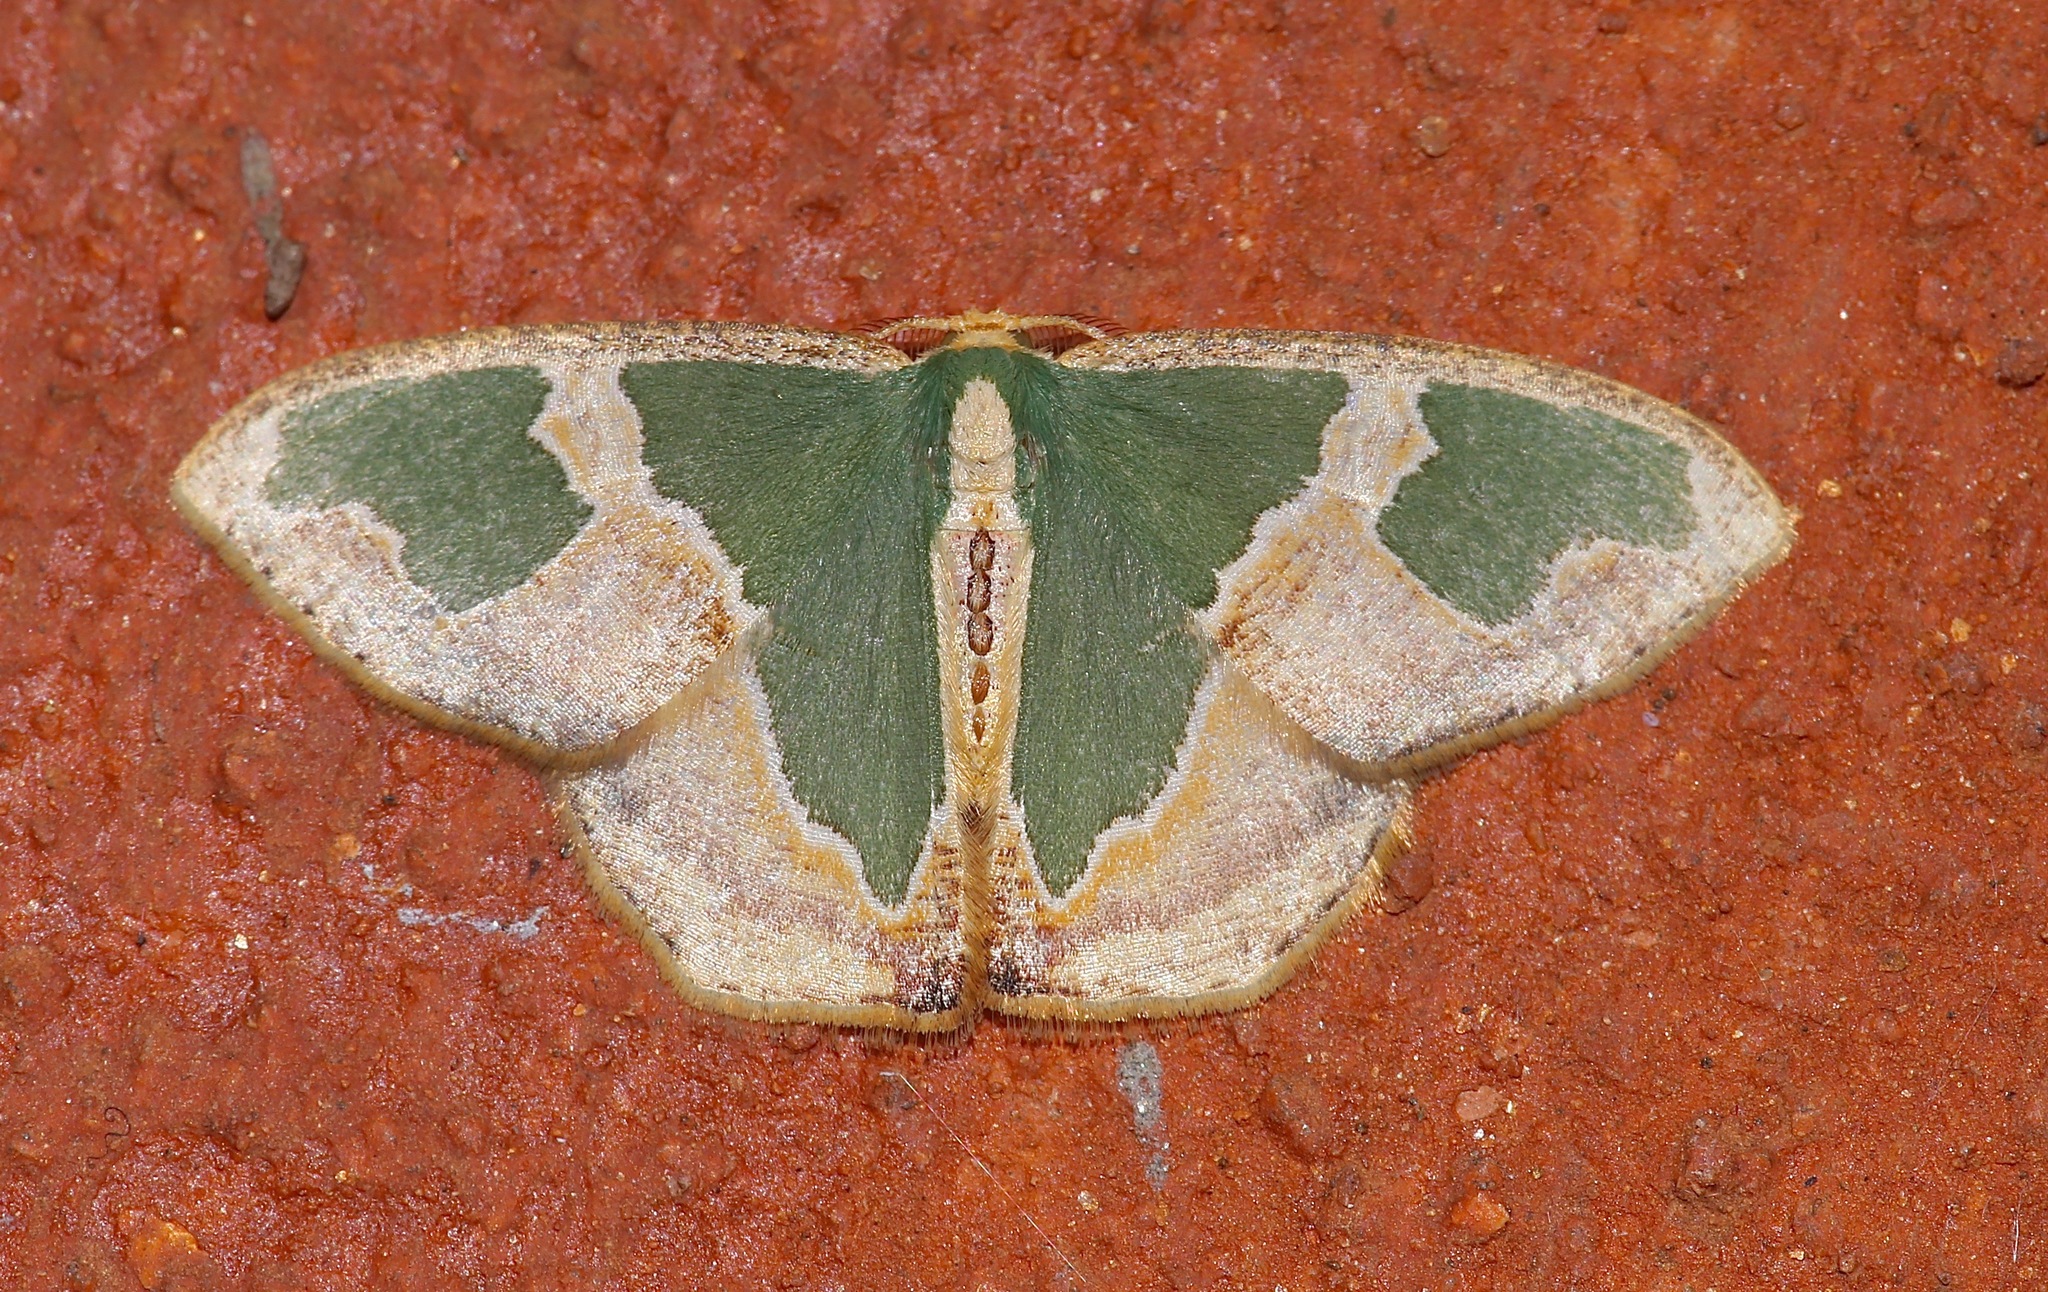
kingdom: Animalia
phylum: Arthropoda
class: Insecta
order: Lepidoptera
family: Geometridae
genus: Oospila
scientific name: Oospila venezuelata
